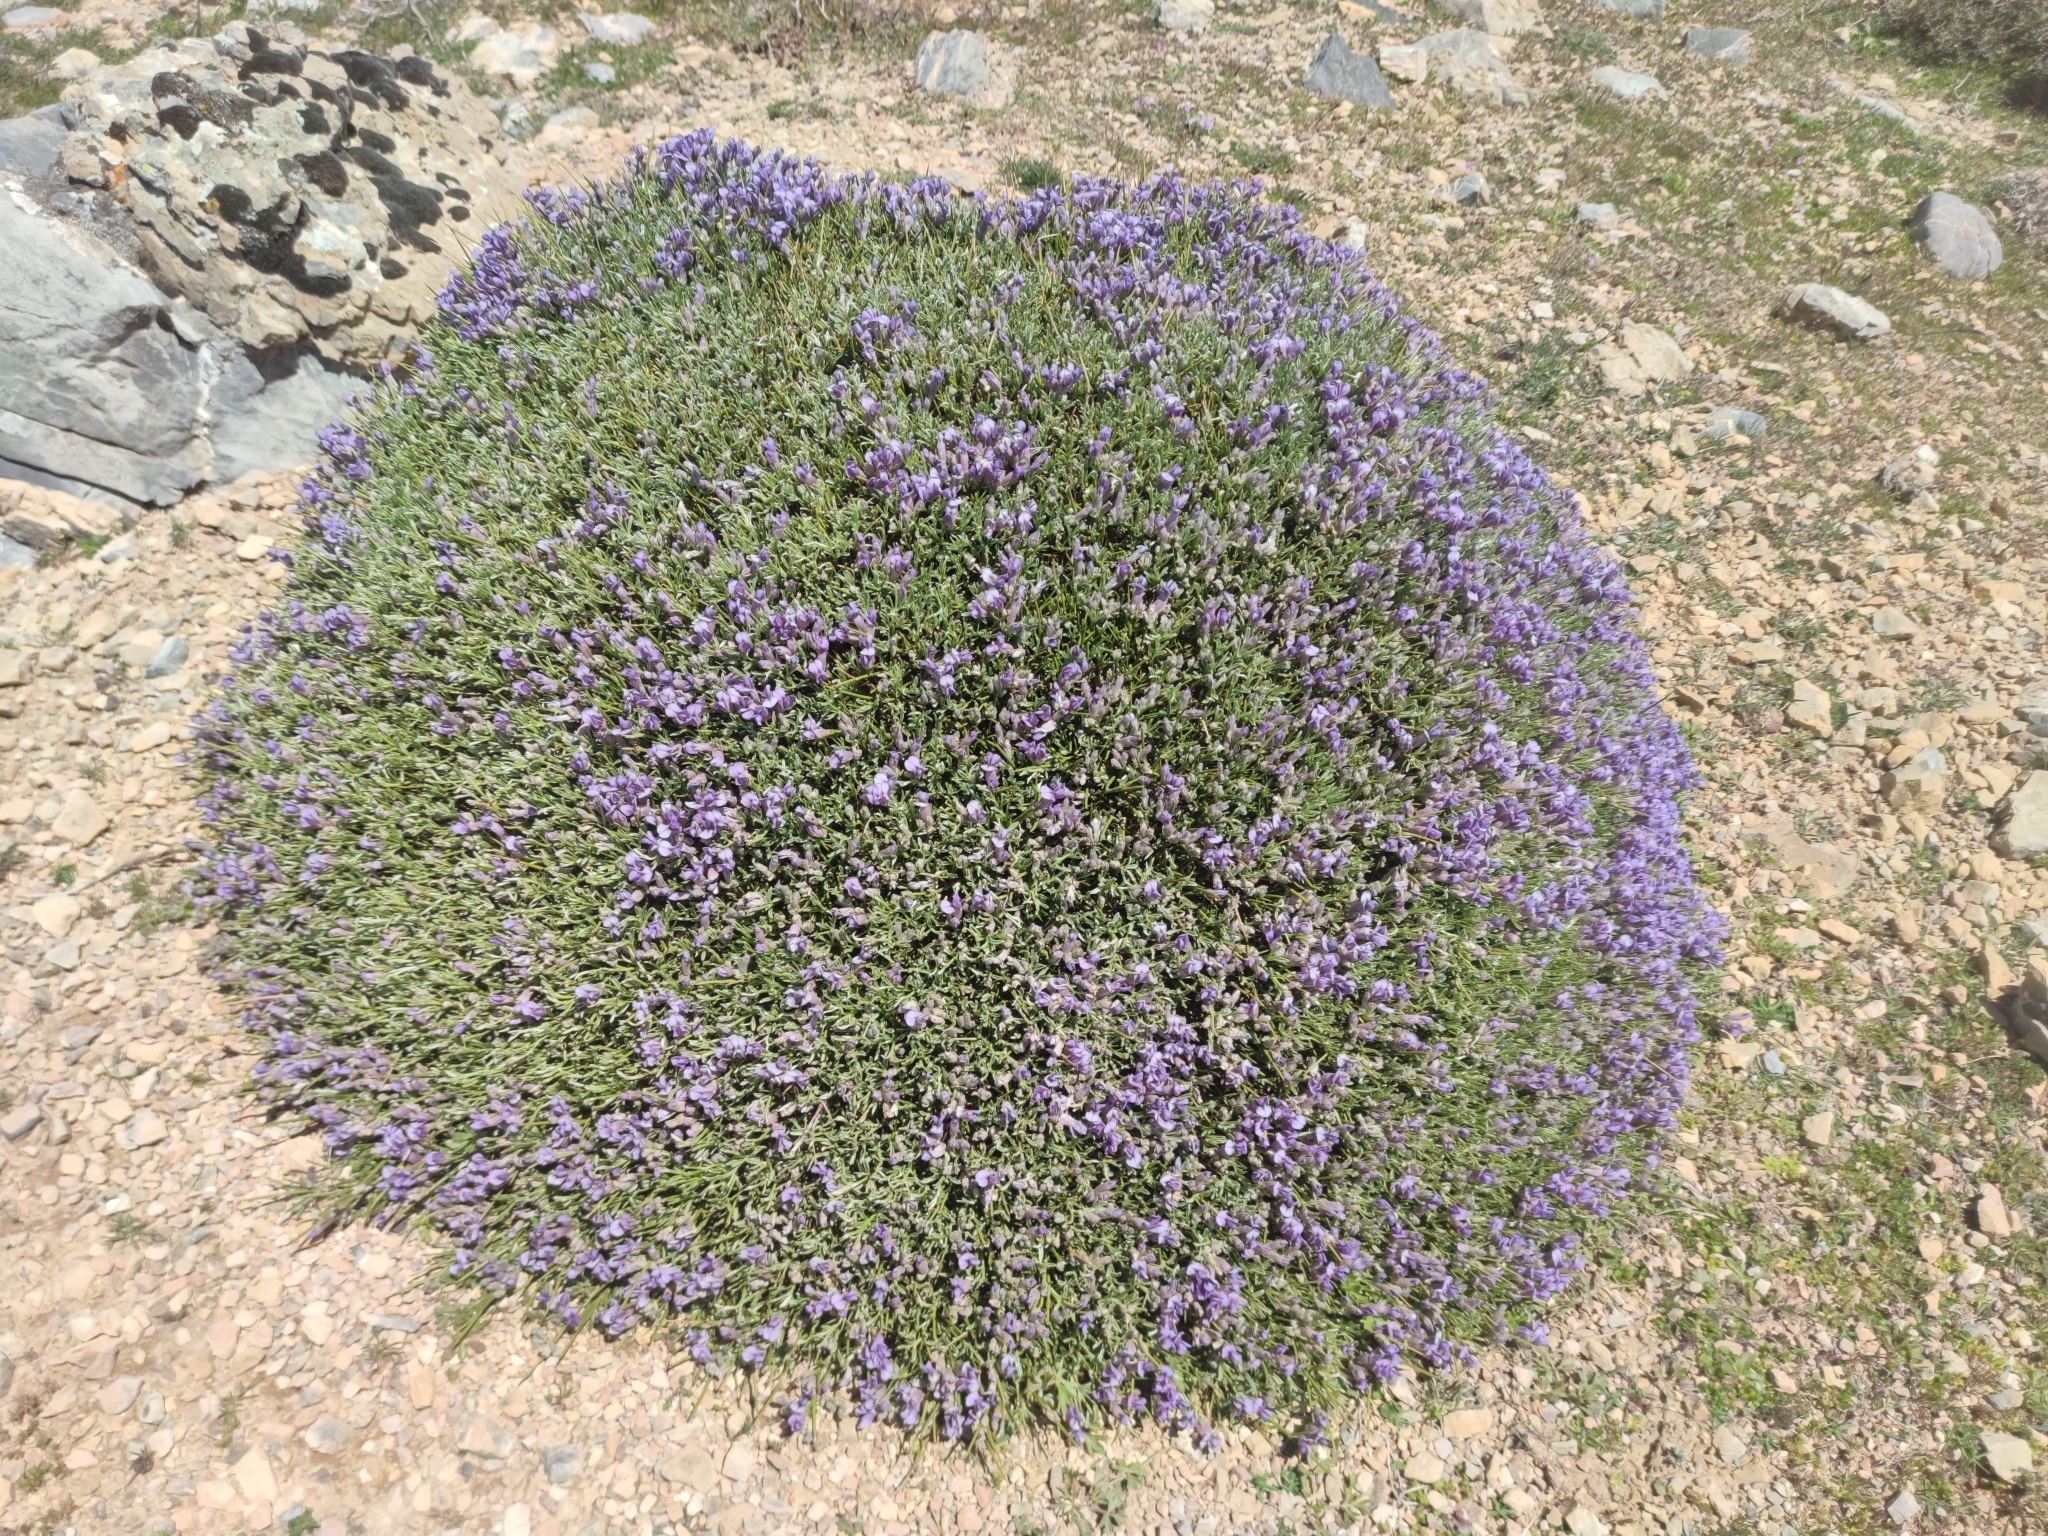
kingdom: Plantae
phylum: Tracheophyta
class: Magnoliopsida
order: Fabales
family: Fabaceae
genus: Erinacea
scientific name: Erinacea anthyllis
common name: Hedgehog-broom
